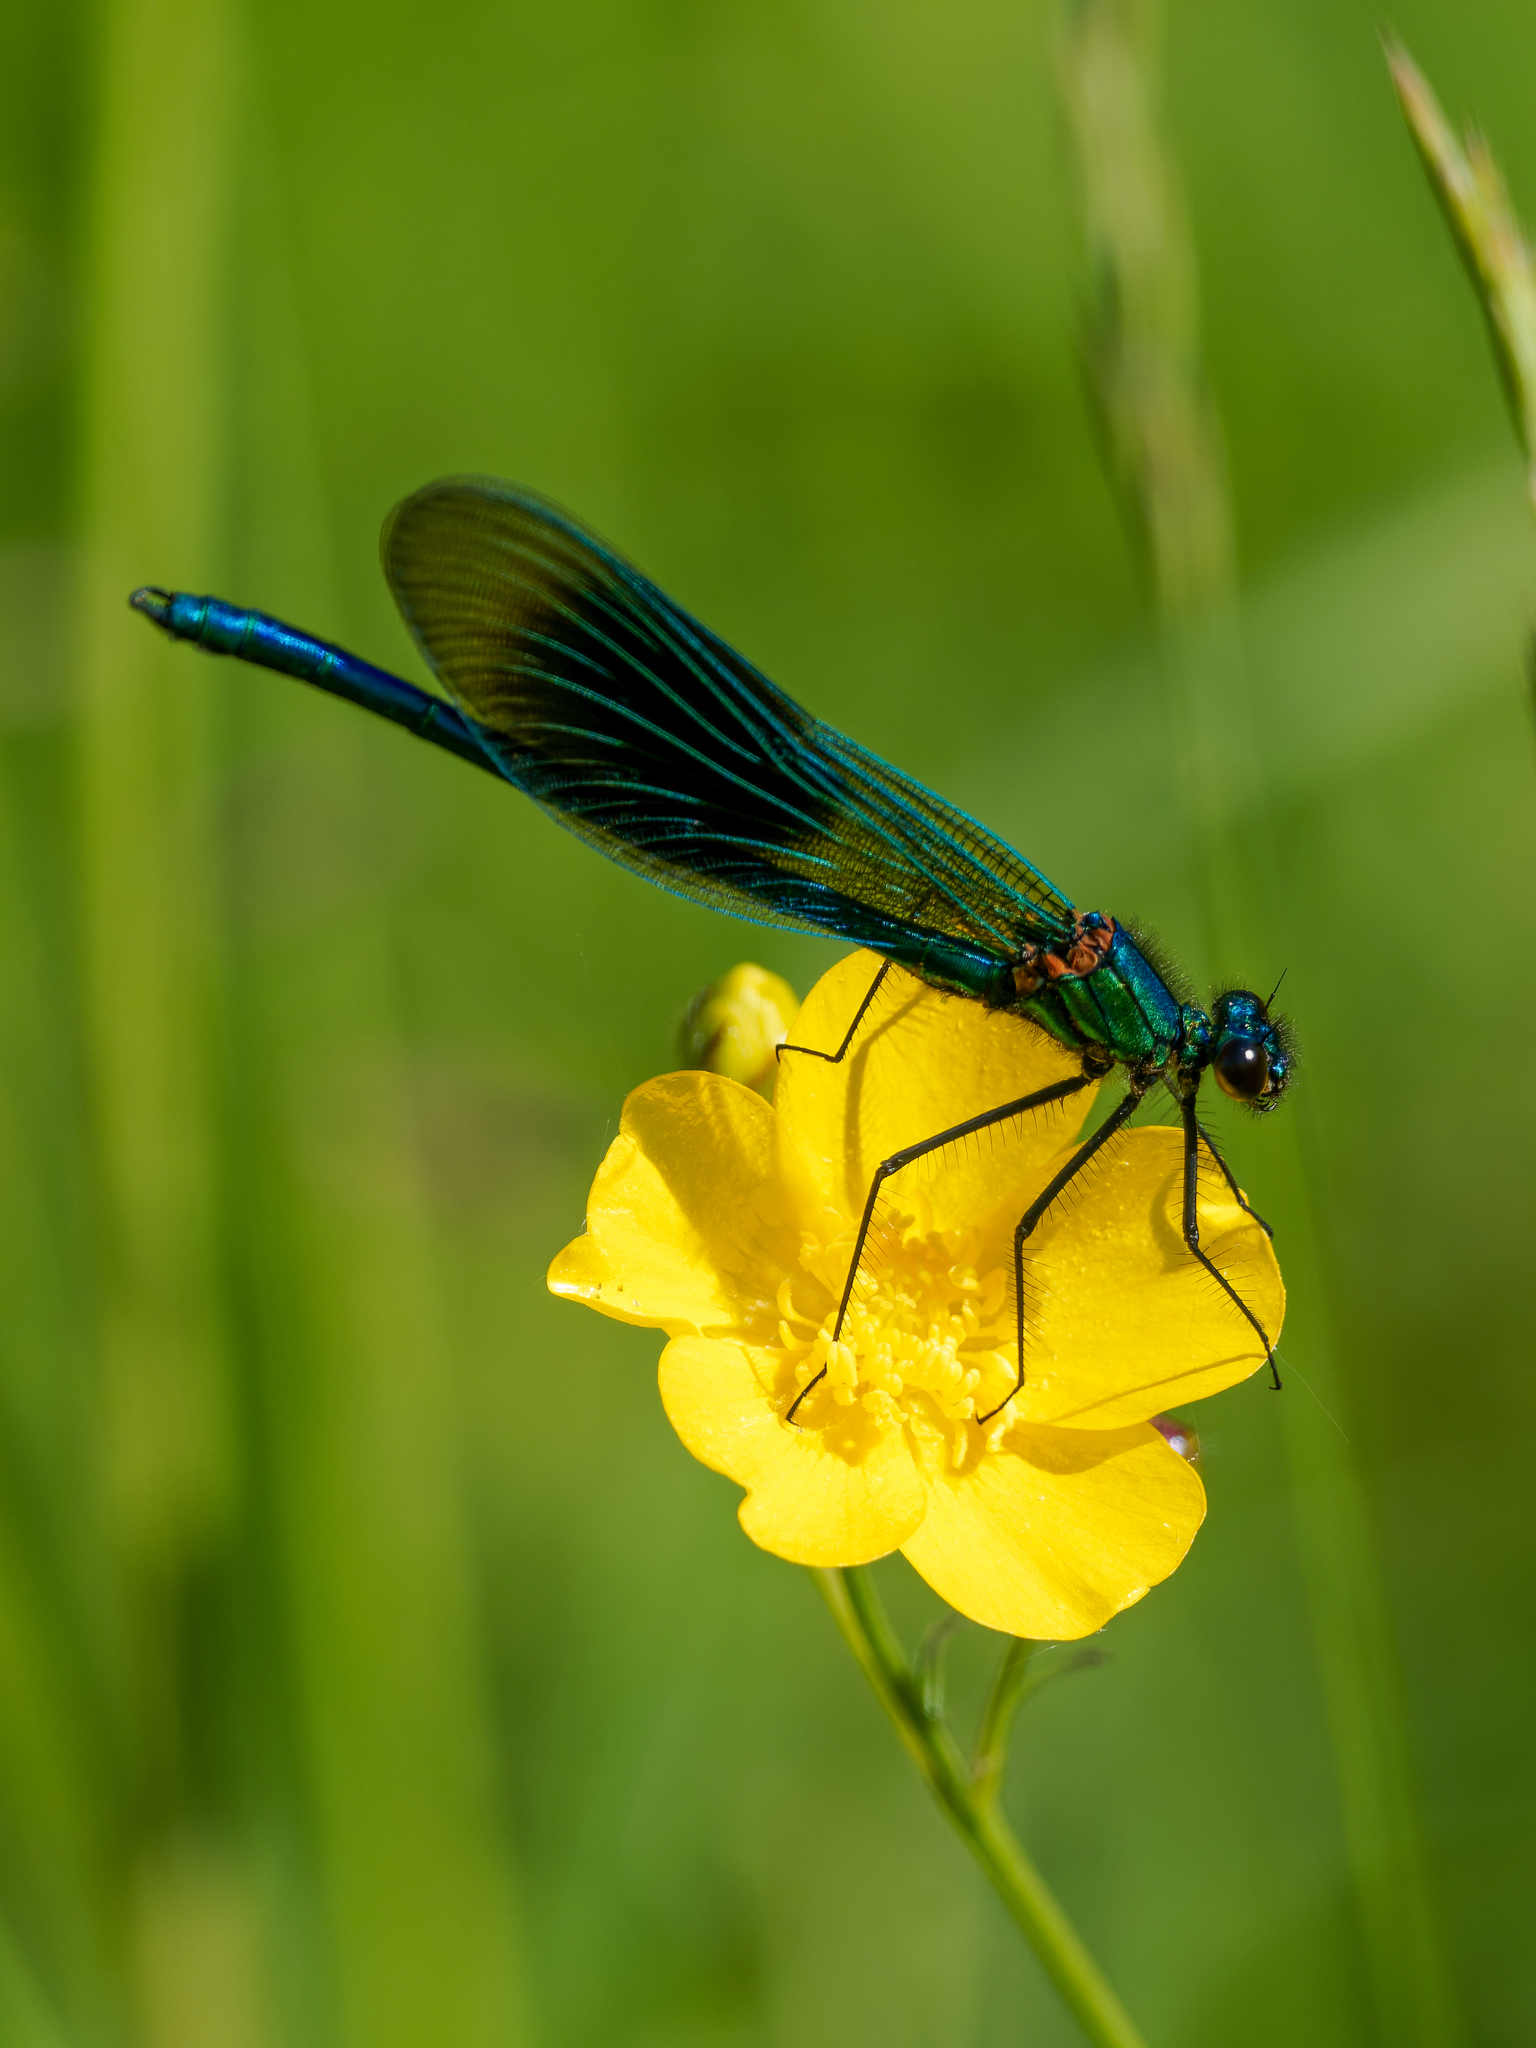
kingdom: Animalia
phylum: Arthropoda
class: Insecta
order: Odonata
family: Calopterygidae
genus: Calopteryx
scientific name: Calopteryx splendens
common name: Banded demoiselle
